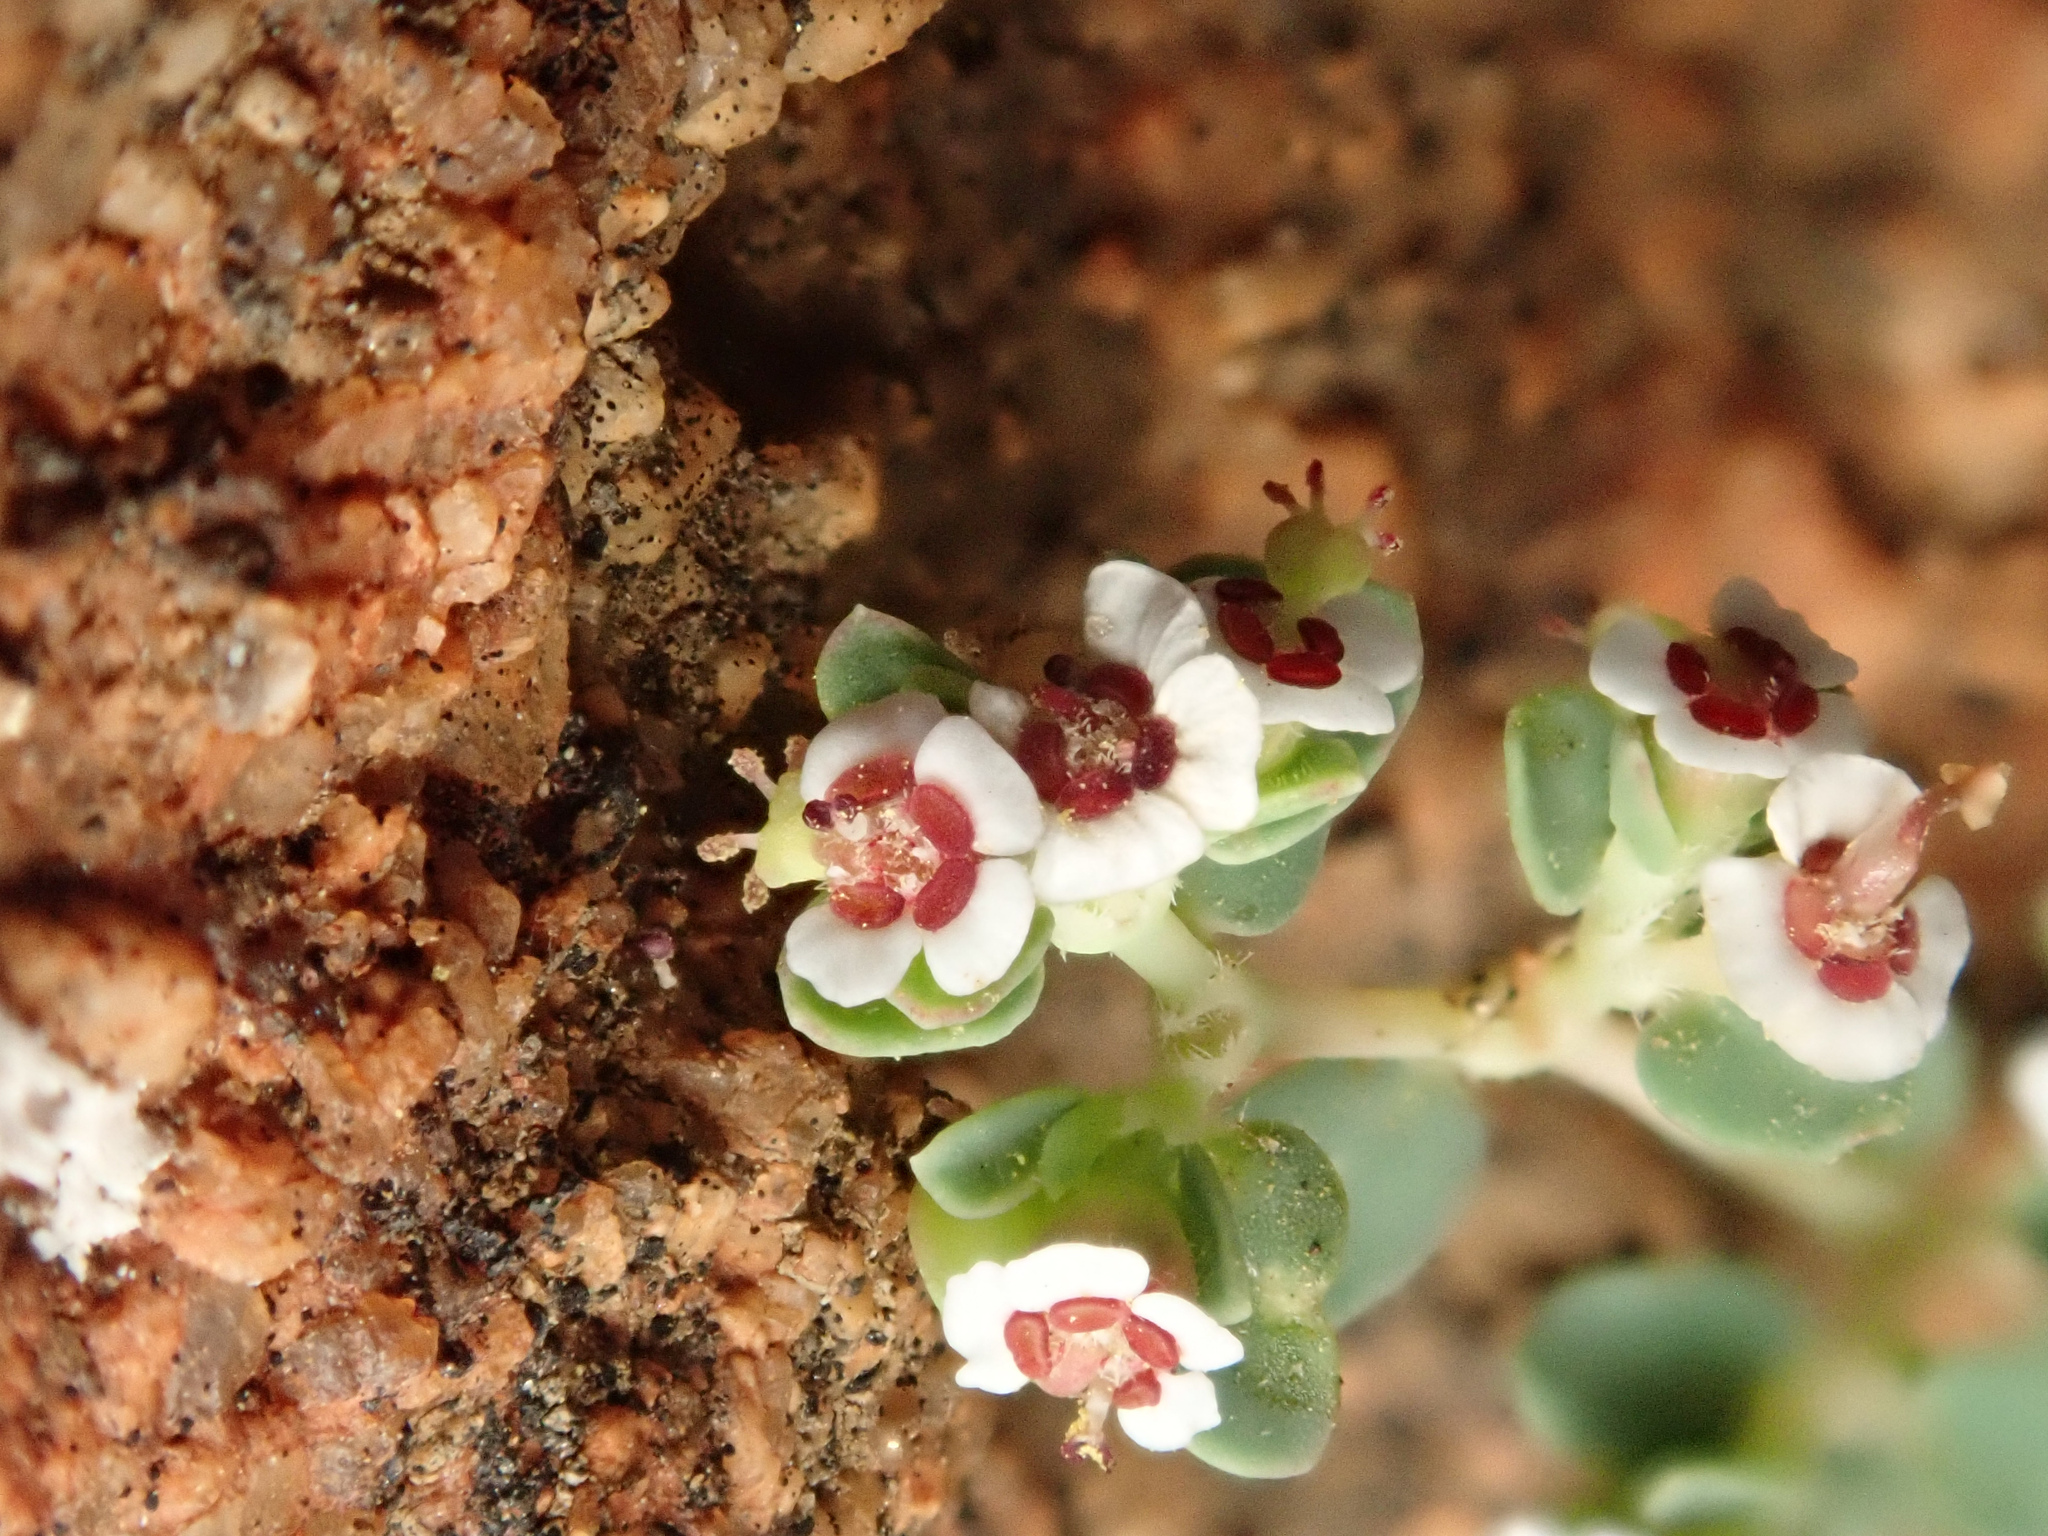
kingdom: Plantae
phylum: Tracheophyta
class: Magnoliopsida
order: Malpighiales
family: Euphorbiaceae
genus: Euphorbia
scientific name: Euphorbia polycarpa
